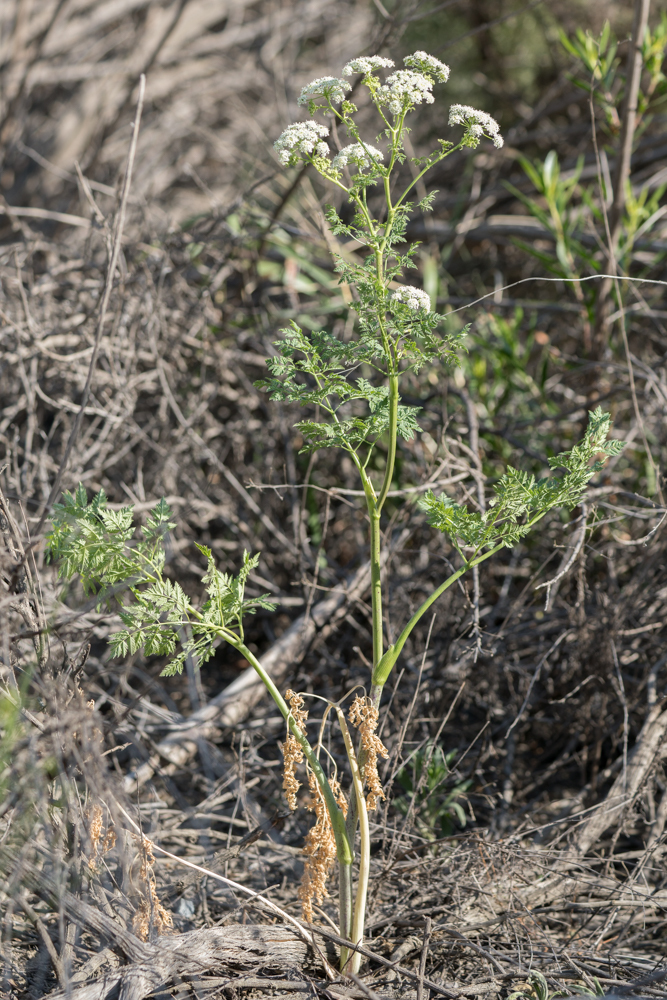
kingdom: Plantae
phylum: Tracheophyta
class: Magnoliopsida
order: Apiales
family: Apiaceae
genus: Conium
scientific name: Conium maculatum
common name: Hemlock
